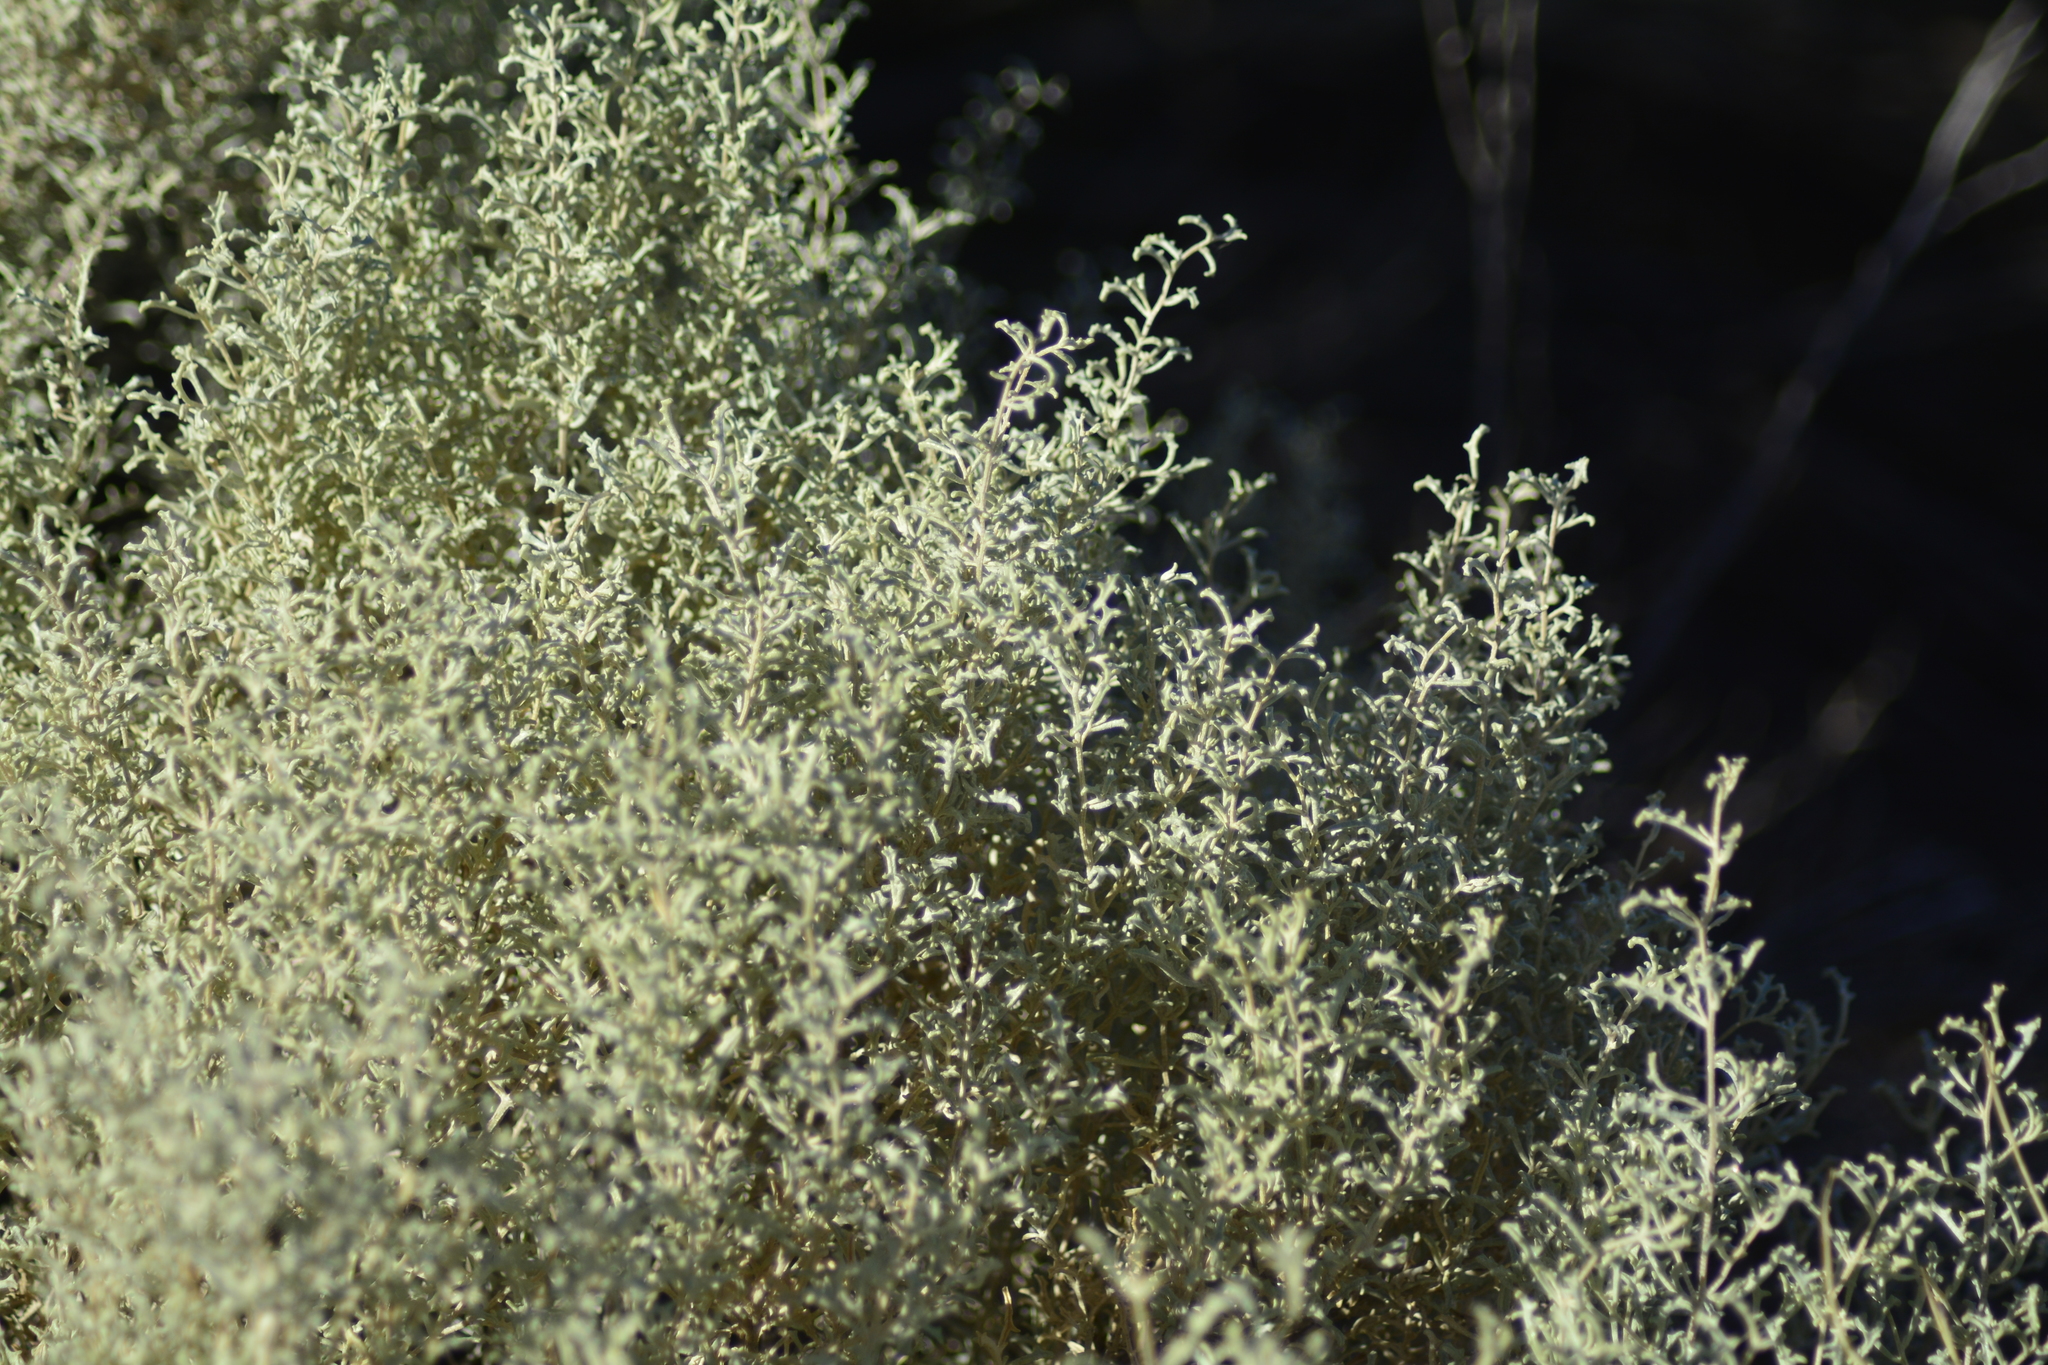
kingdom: Plantae
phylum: Tracheophyta
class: Magnoliopsida
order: Caryophyllales
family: Amaranthaceae
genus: Atriplex
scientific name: Atriplex lampa
